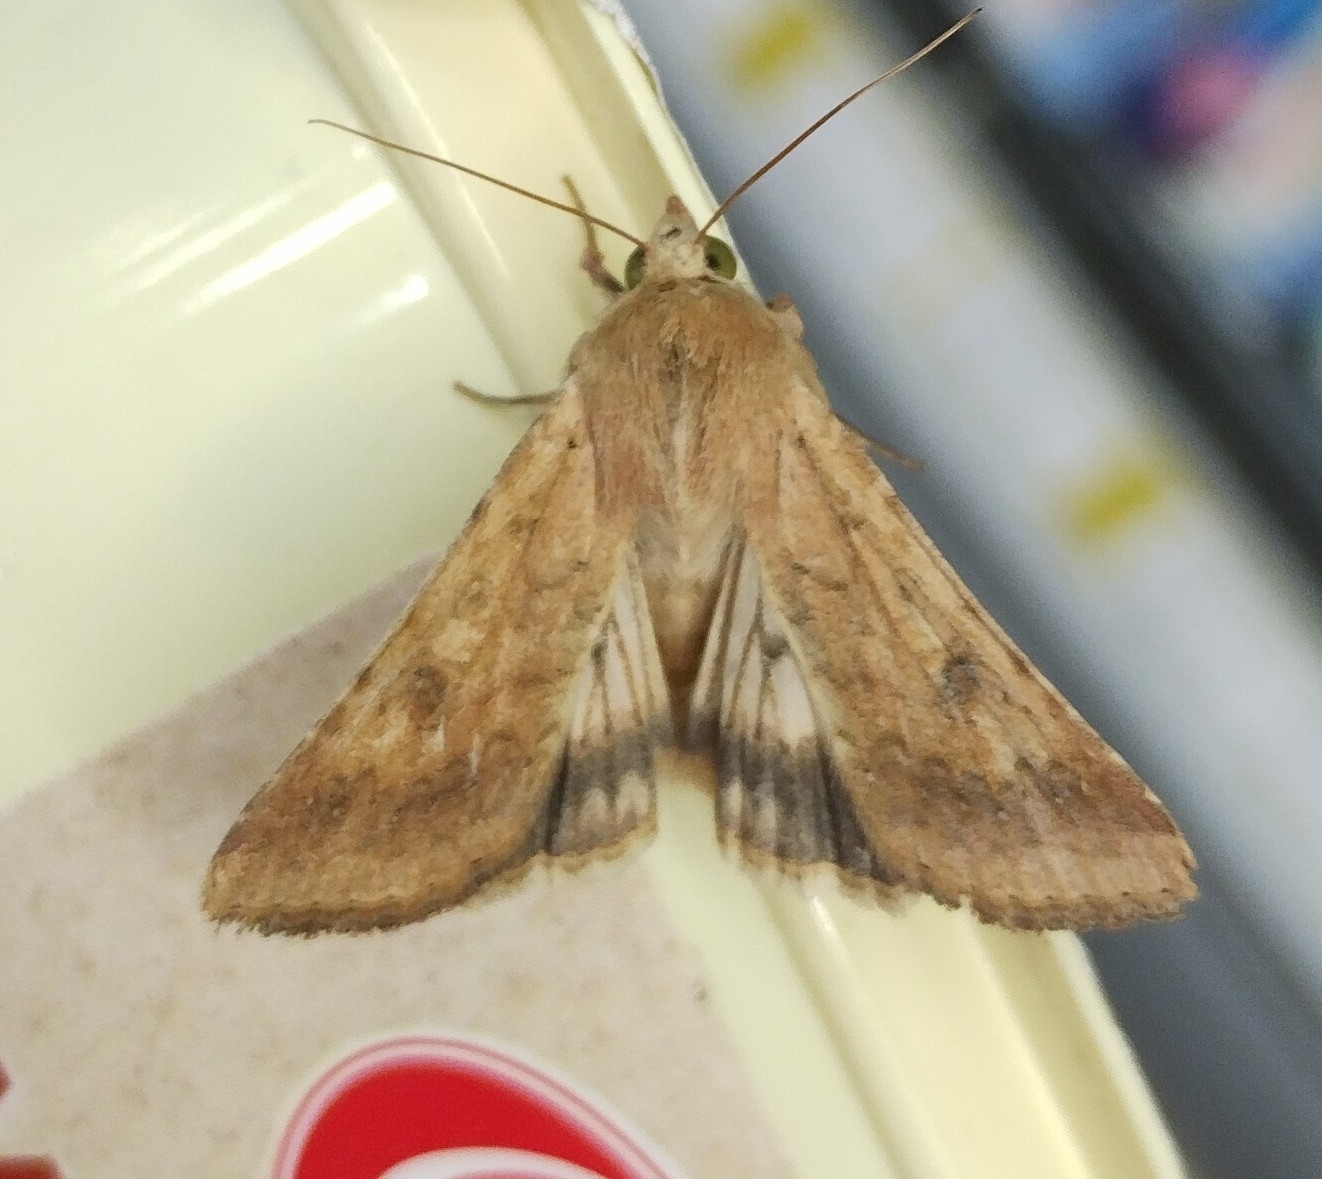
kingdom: Animalia
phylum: Arthropoda
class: Insecta
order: Lepidoptera
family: Noctuidae
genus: Helicoverpa
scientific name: Helicoverpa armigera
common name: Cotton bollworm
